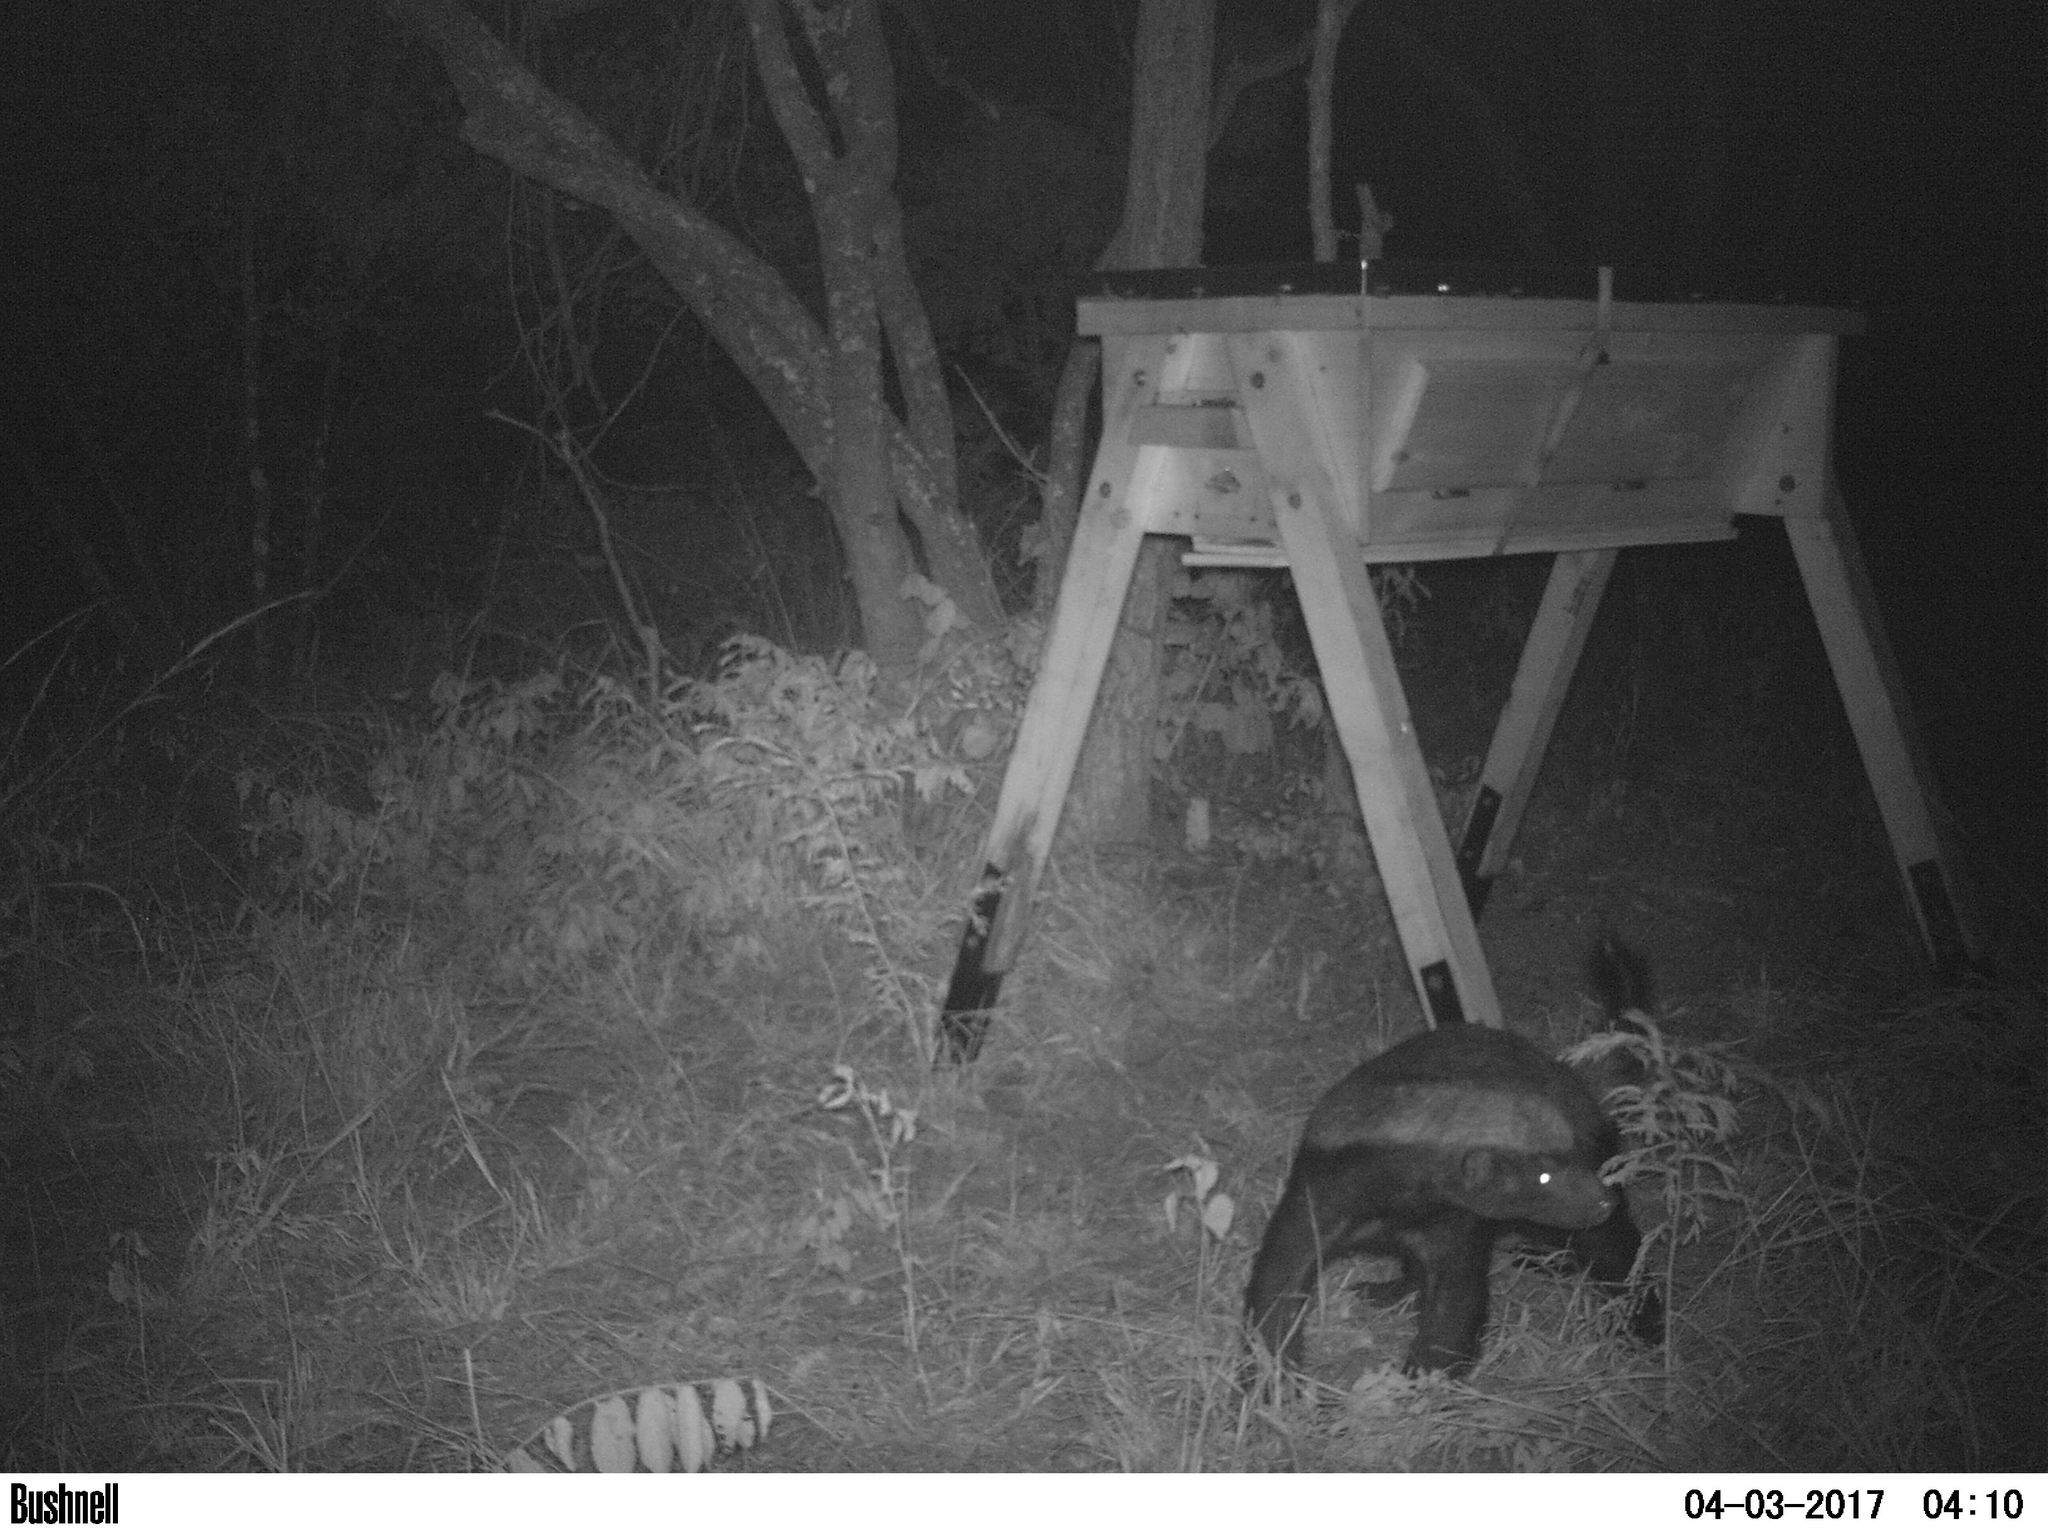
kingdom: Animalia
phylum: Chordata
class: Mammalia
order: Carnivora
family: Mustelidae
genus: Mellivora
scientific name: Mellivora capensis
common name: Honey badger
